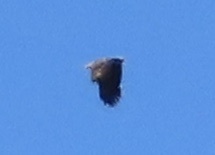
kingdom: Animalia
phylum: Chordata
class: Aves
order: Accipitriformes
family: Accipitridae
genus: Haliaeetus
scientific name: Haliaeetus albicilla
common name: White-tailed eagle
